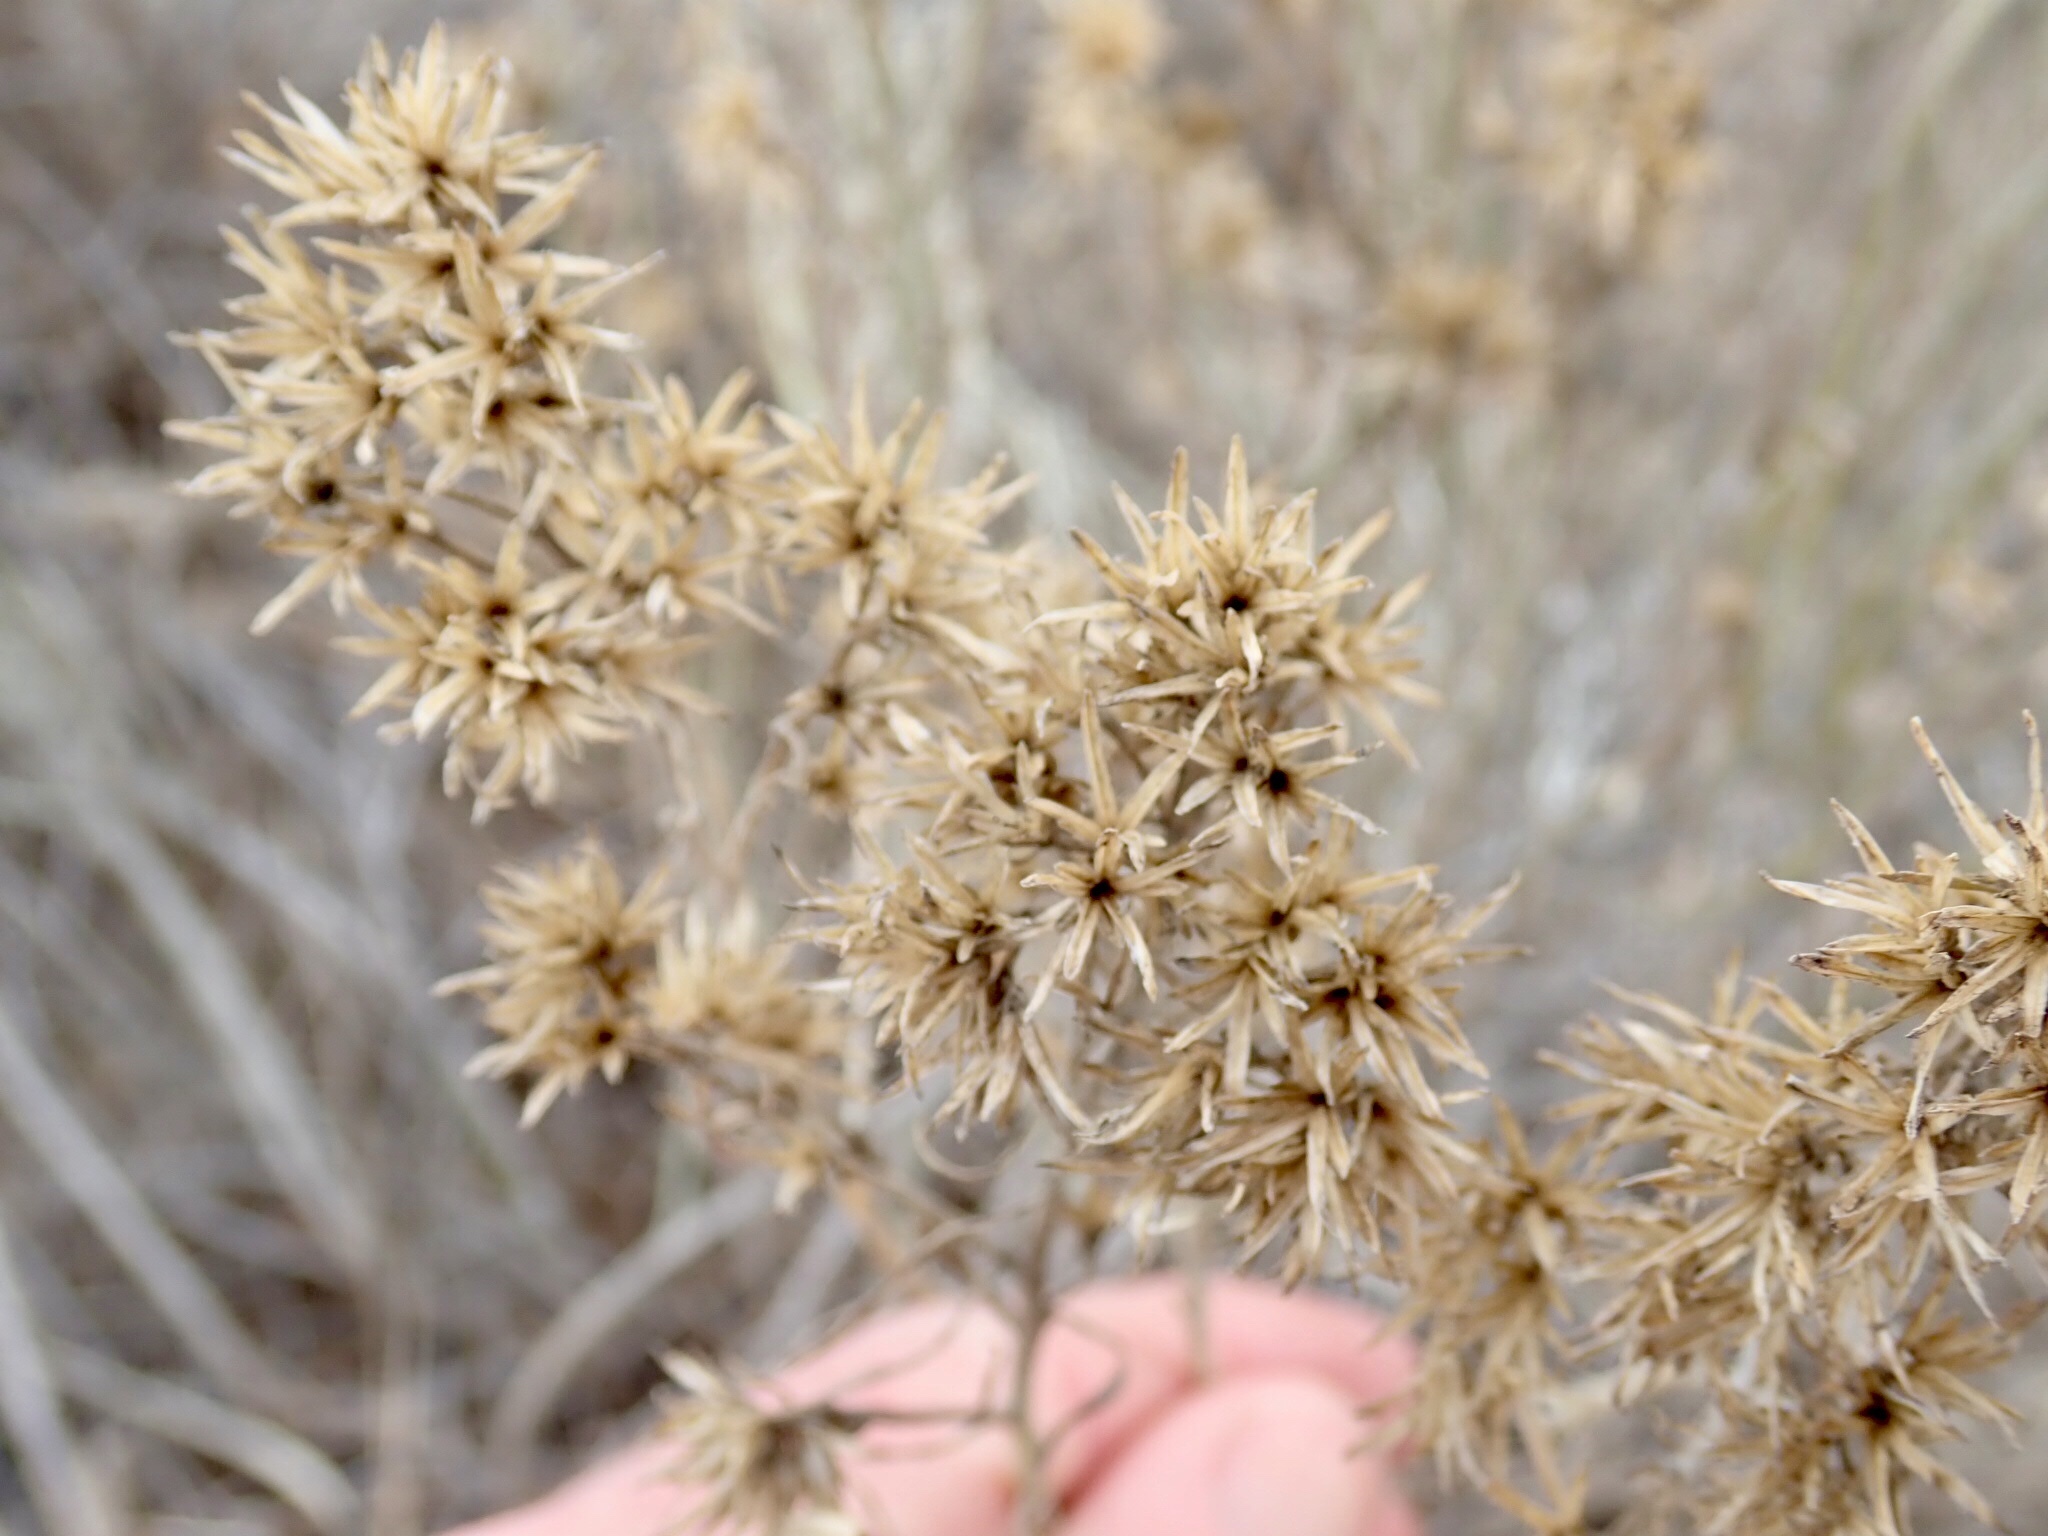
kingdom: Plantae
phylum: Tracheophyta
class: Magnoliopsida
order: Asterales
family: Asteraceae
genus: Ericameria
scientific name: Ericameria nauseosa
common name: Rubber rabbitbrush
